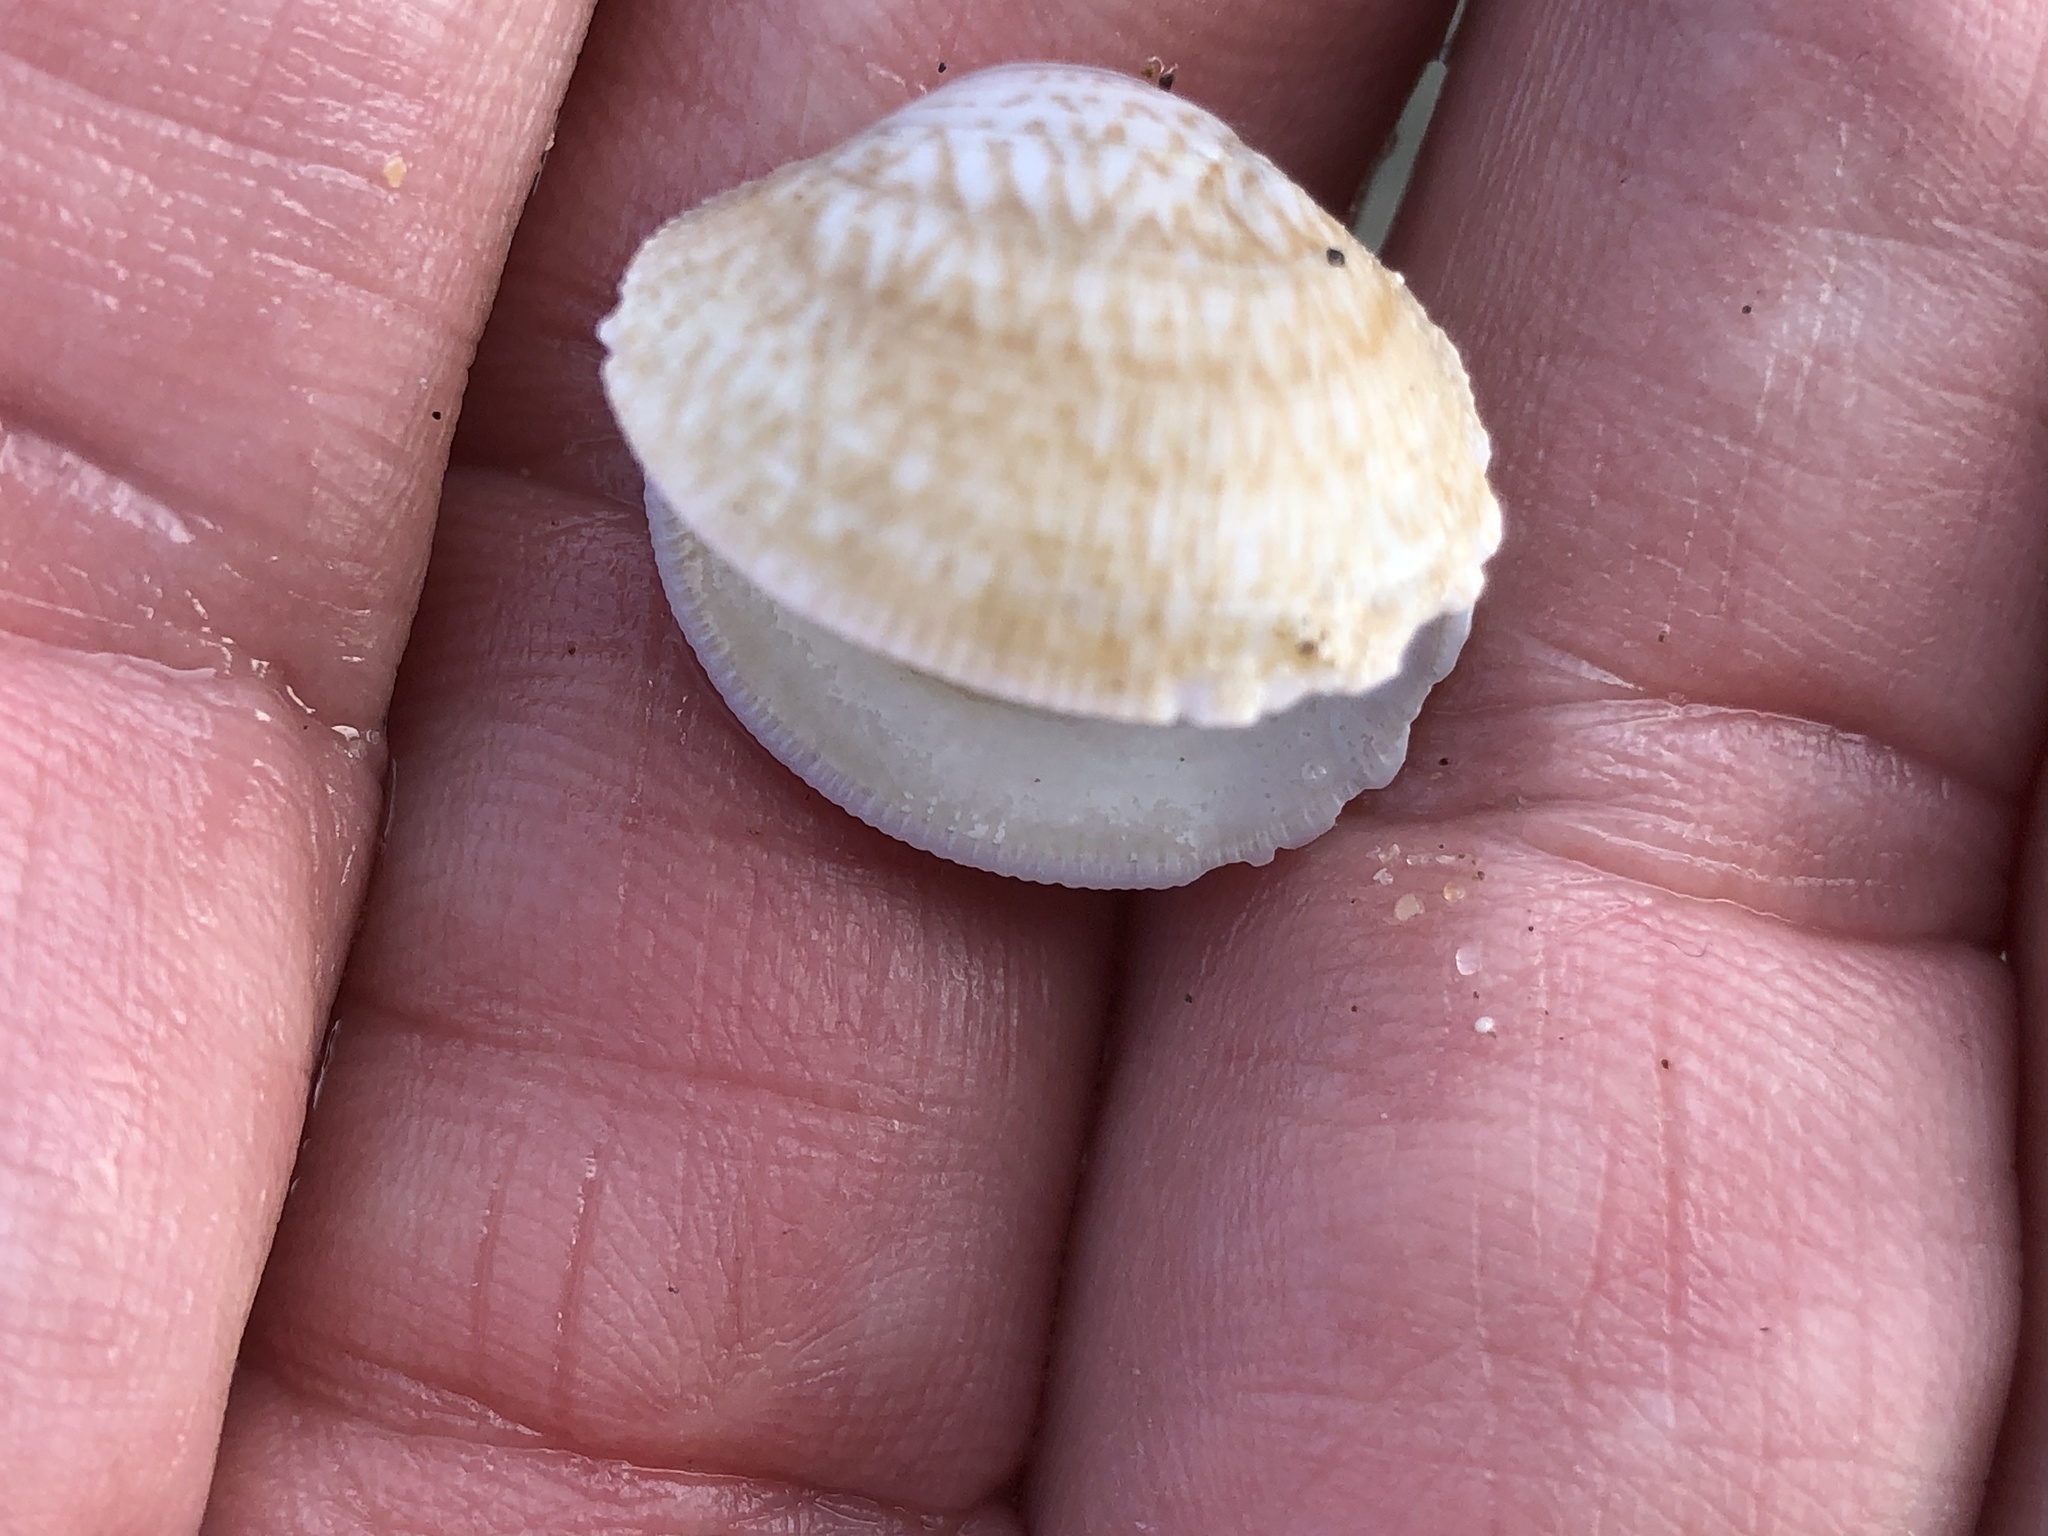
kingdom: Animalia
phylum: Mollusca
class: Bivalvia
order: Venerida
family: Veneridae
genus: Leukoma
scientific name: Leukoma staminea
